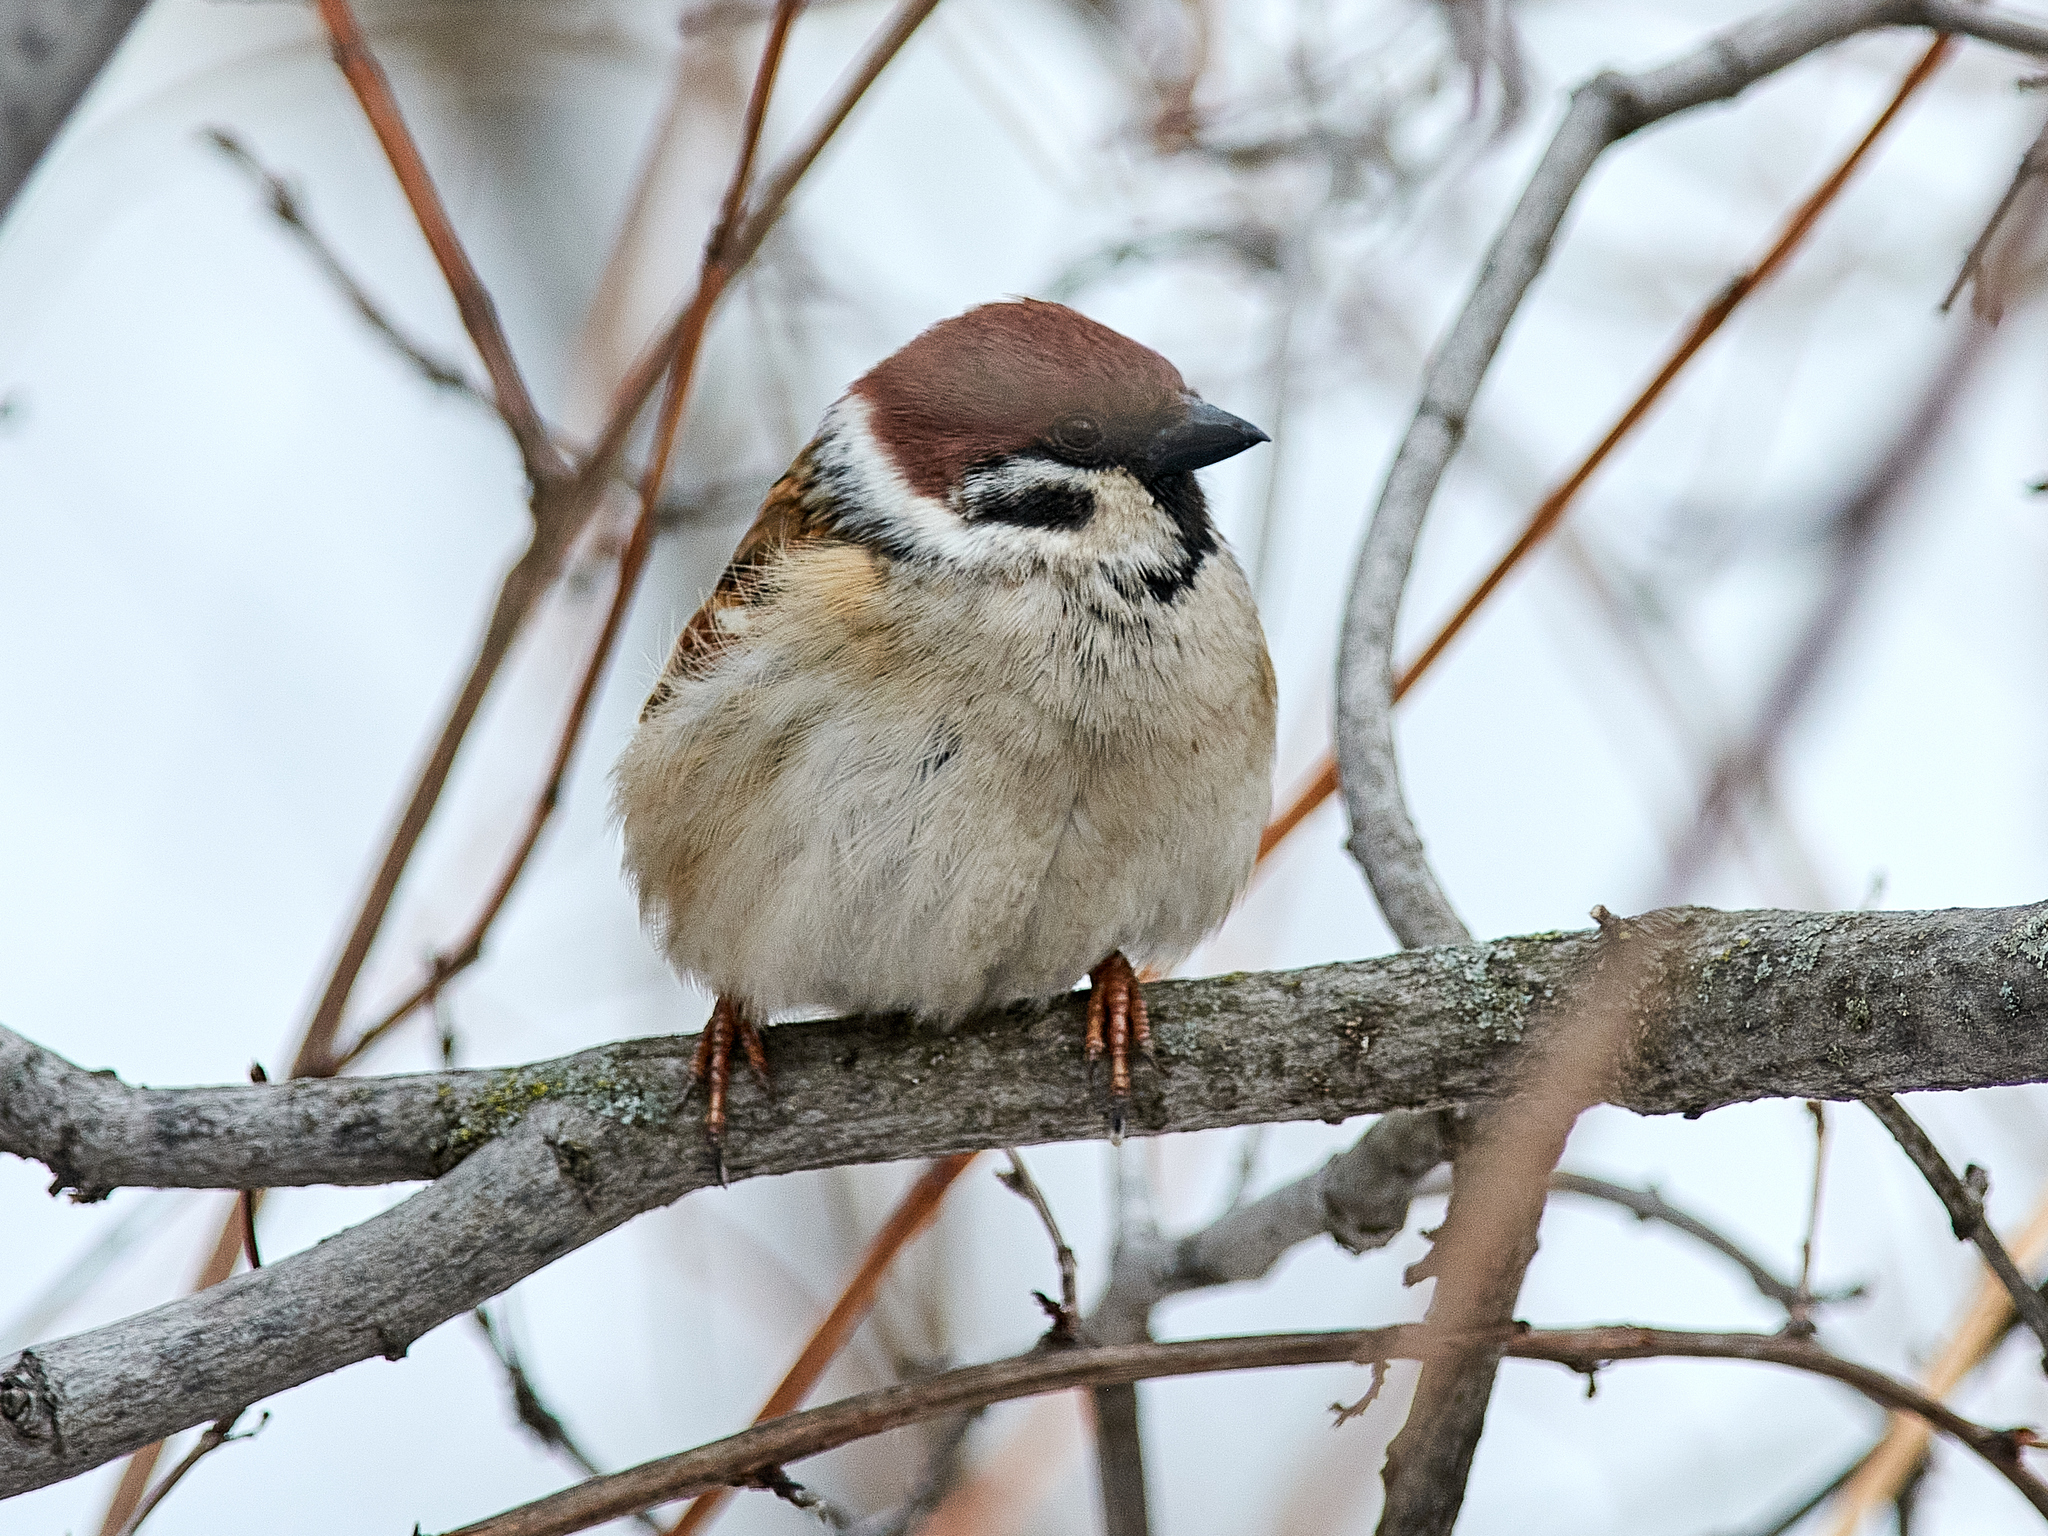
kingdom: Animalia
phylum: Chordata
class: Aves
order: Passeriformes
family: Passeridae
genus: Passer
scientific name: Passer montanus
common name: Eurasian tree sparrow
